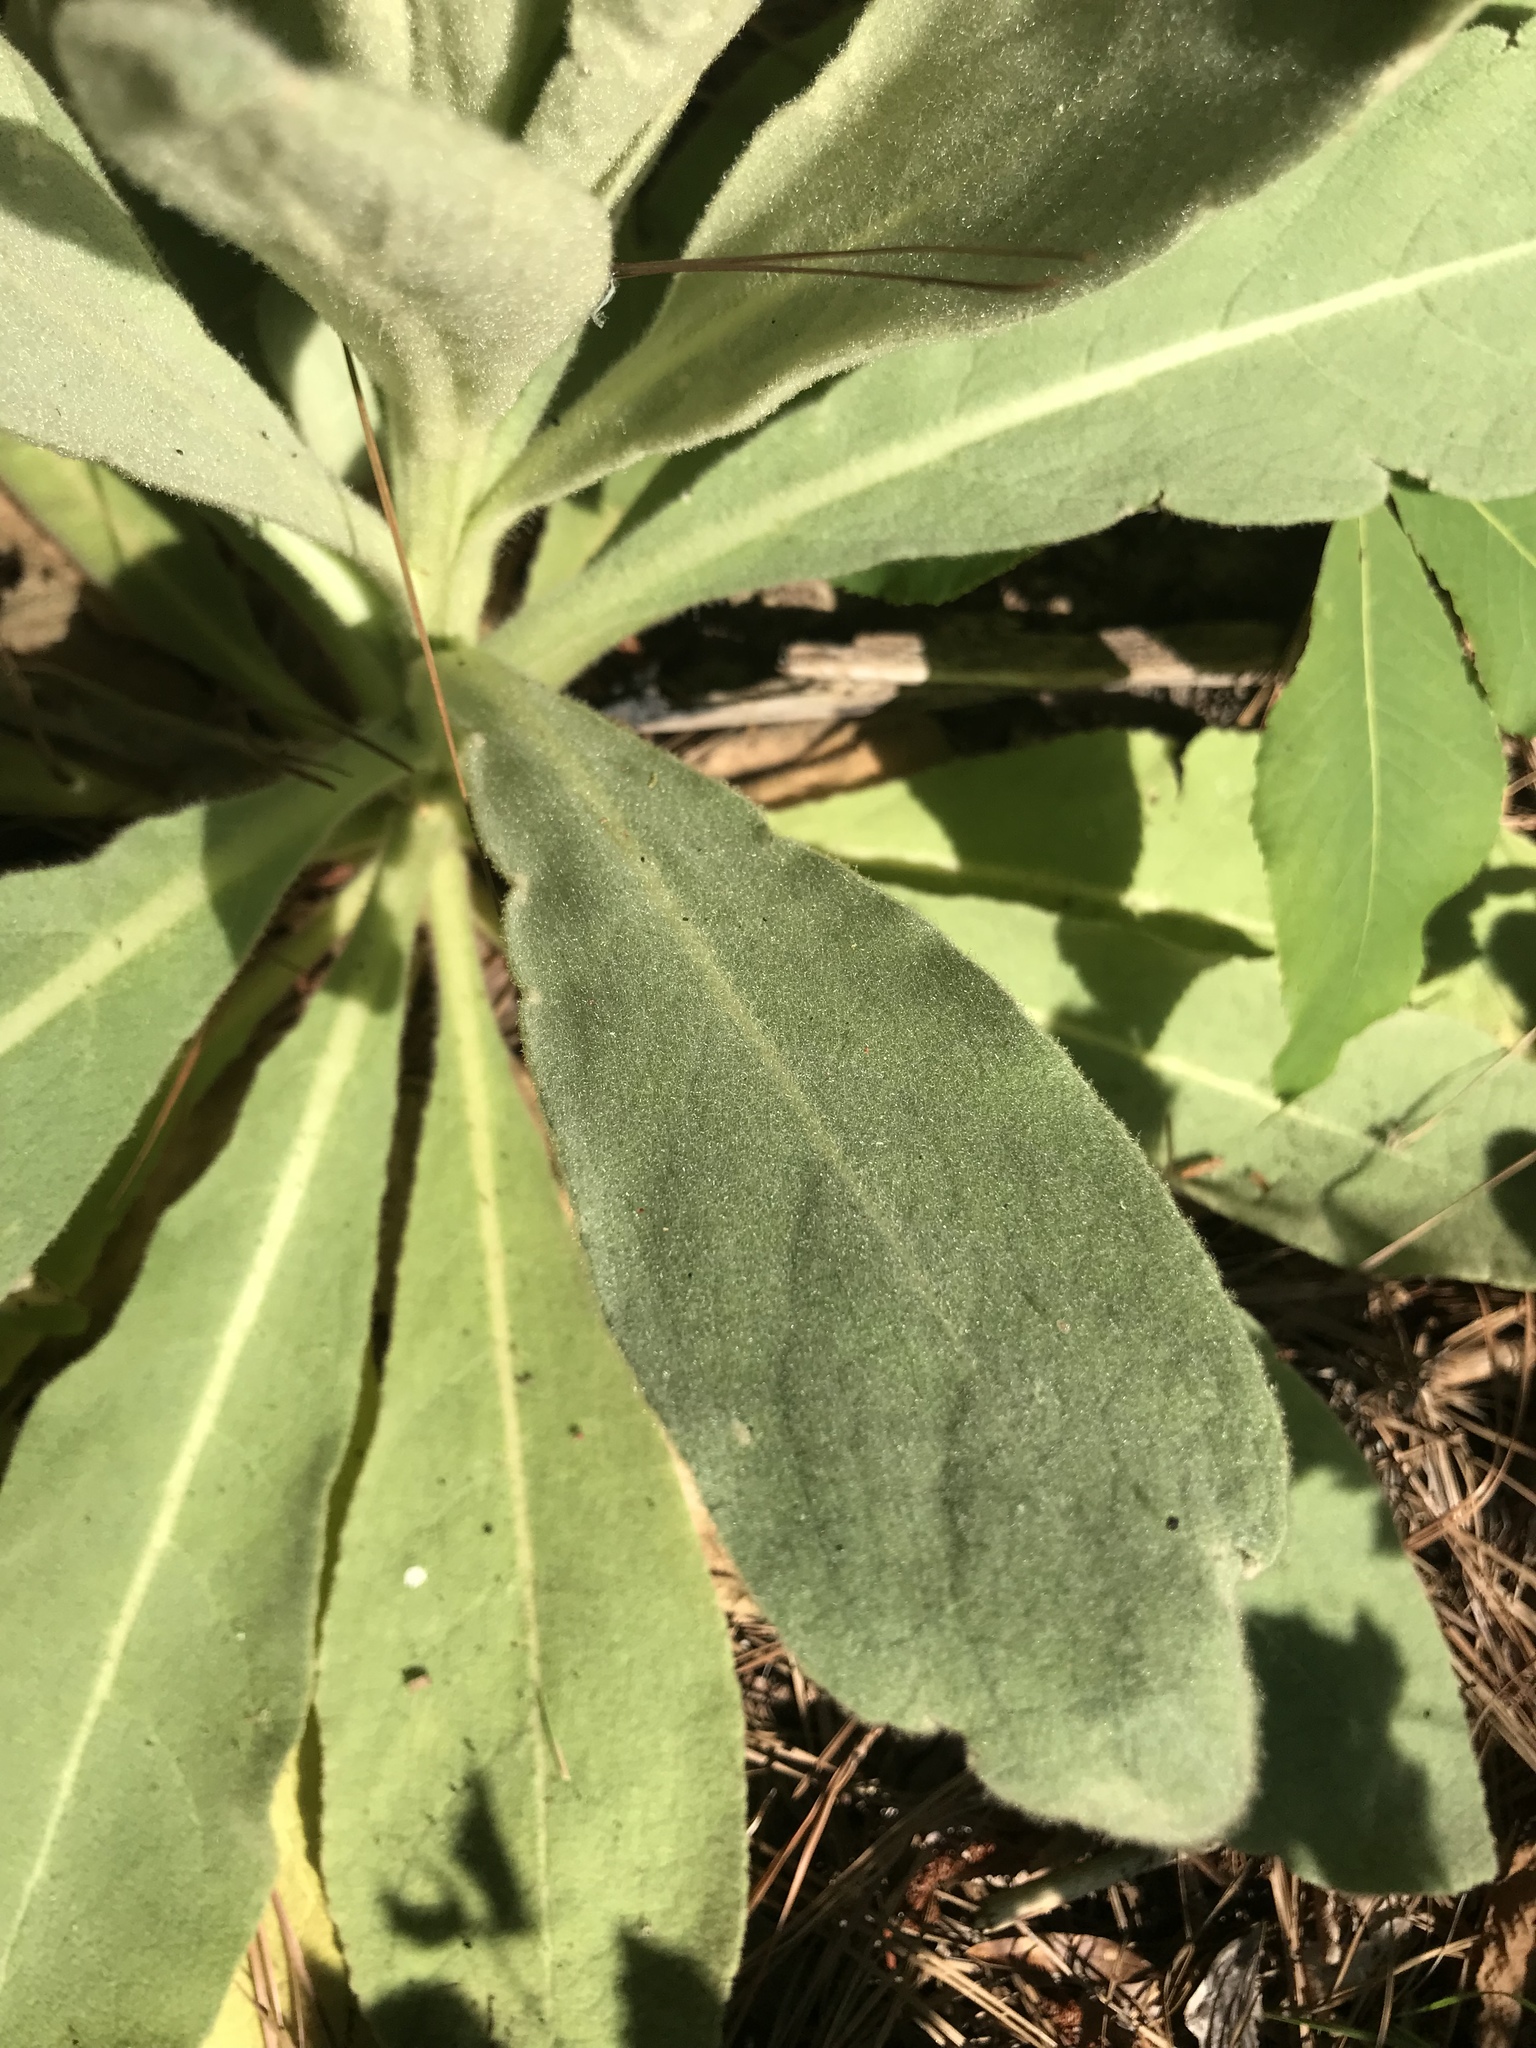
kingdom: Plantae
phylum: Tracheophyta
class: Magnoliopsida
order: Lamiales
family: Scrophulariaceae
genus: Verbascum
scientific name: Verbascum thapsus
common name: Common mullein
